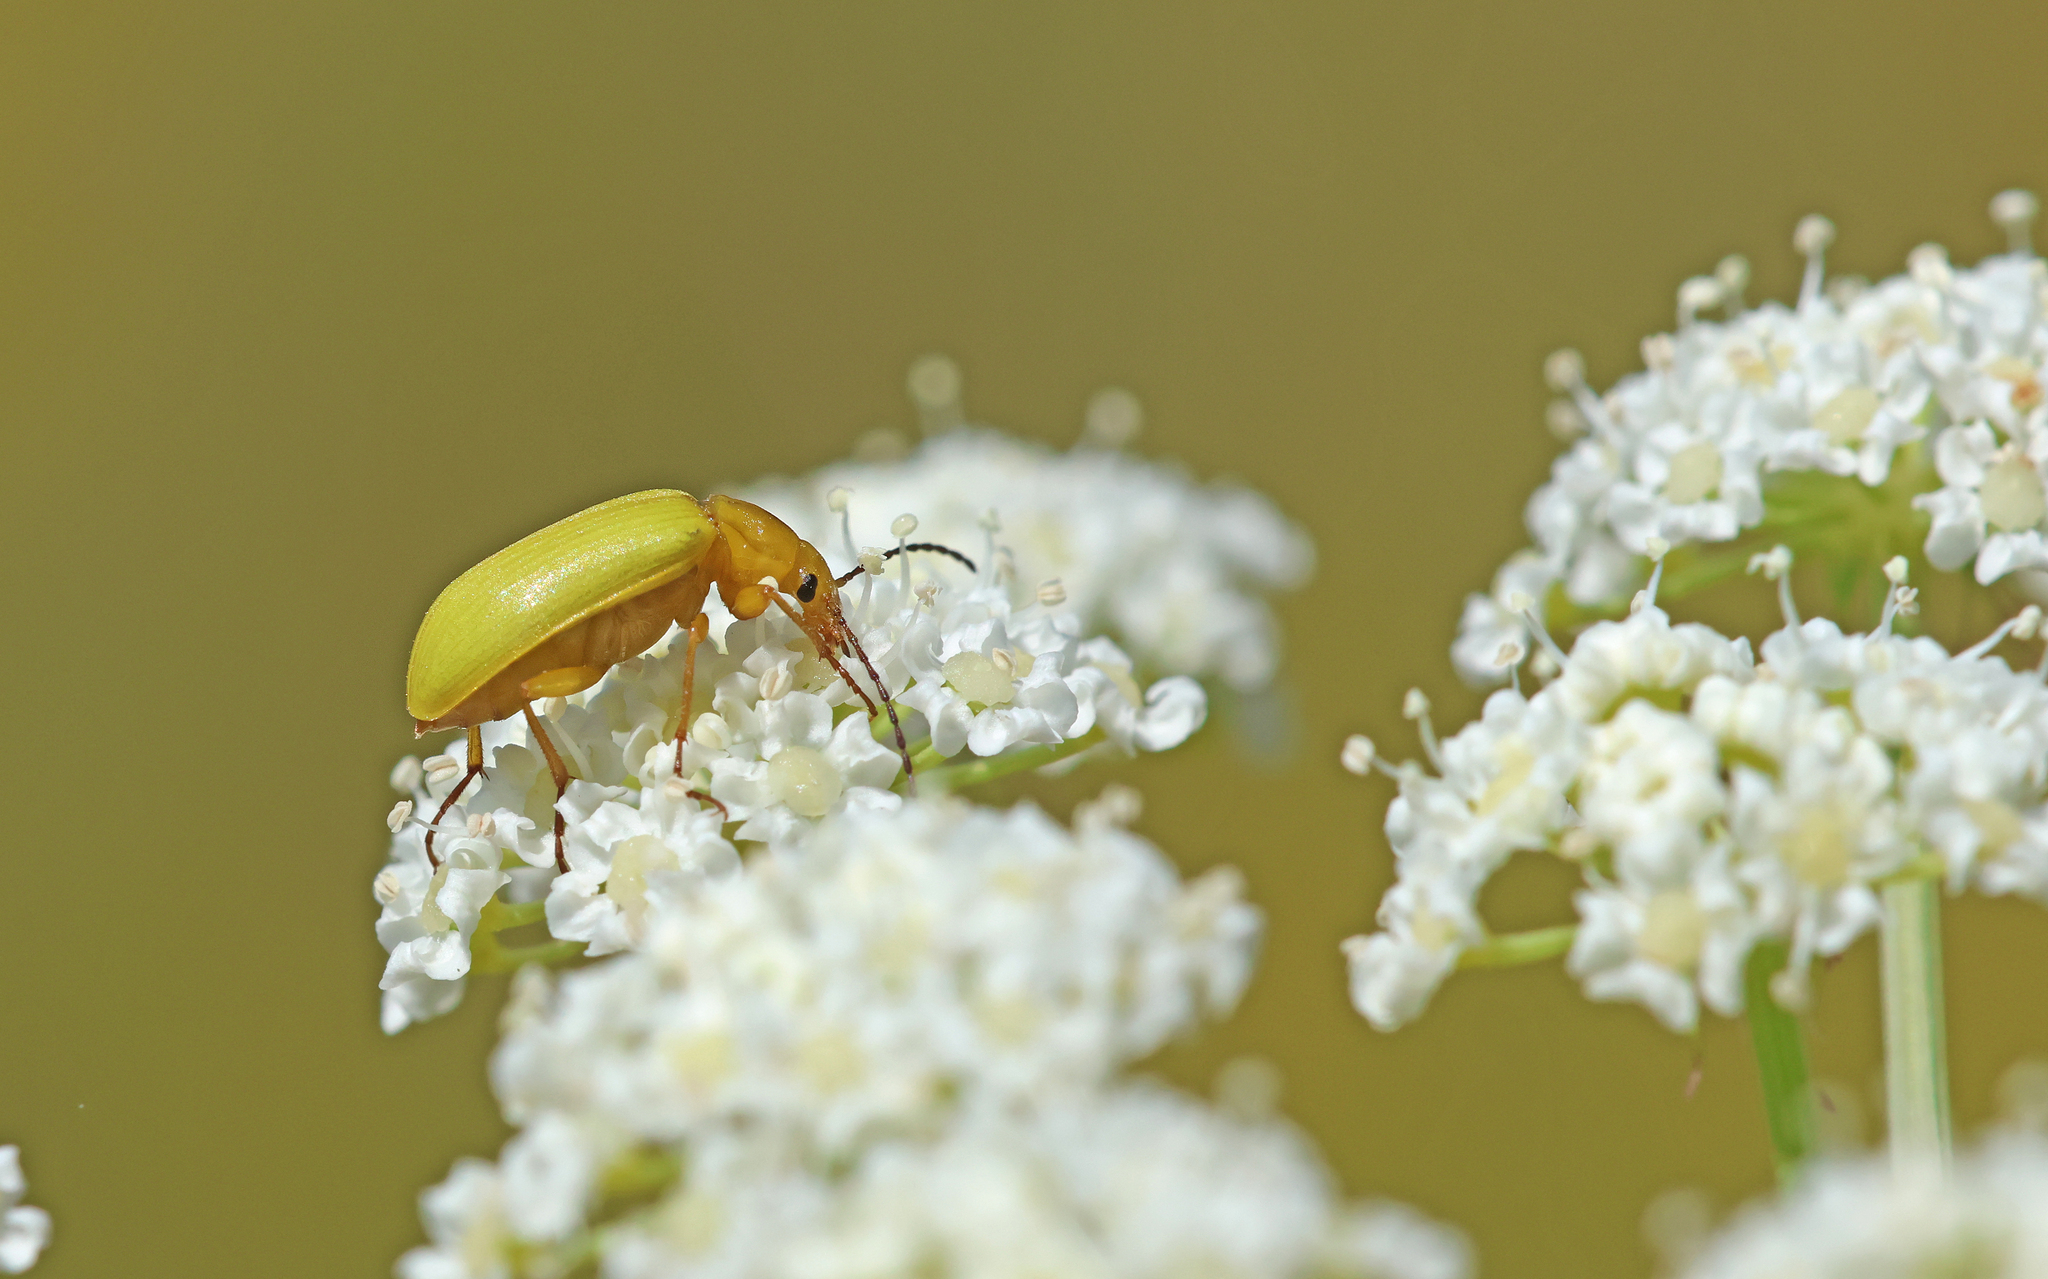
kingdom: Animalia
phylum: Arthropoda
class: Insecta
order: Coleoptera
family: Tenebrionidae
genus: Cteniopus
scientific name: Cteniopus sulphureus
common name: Sulphur beetle
